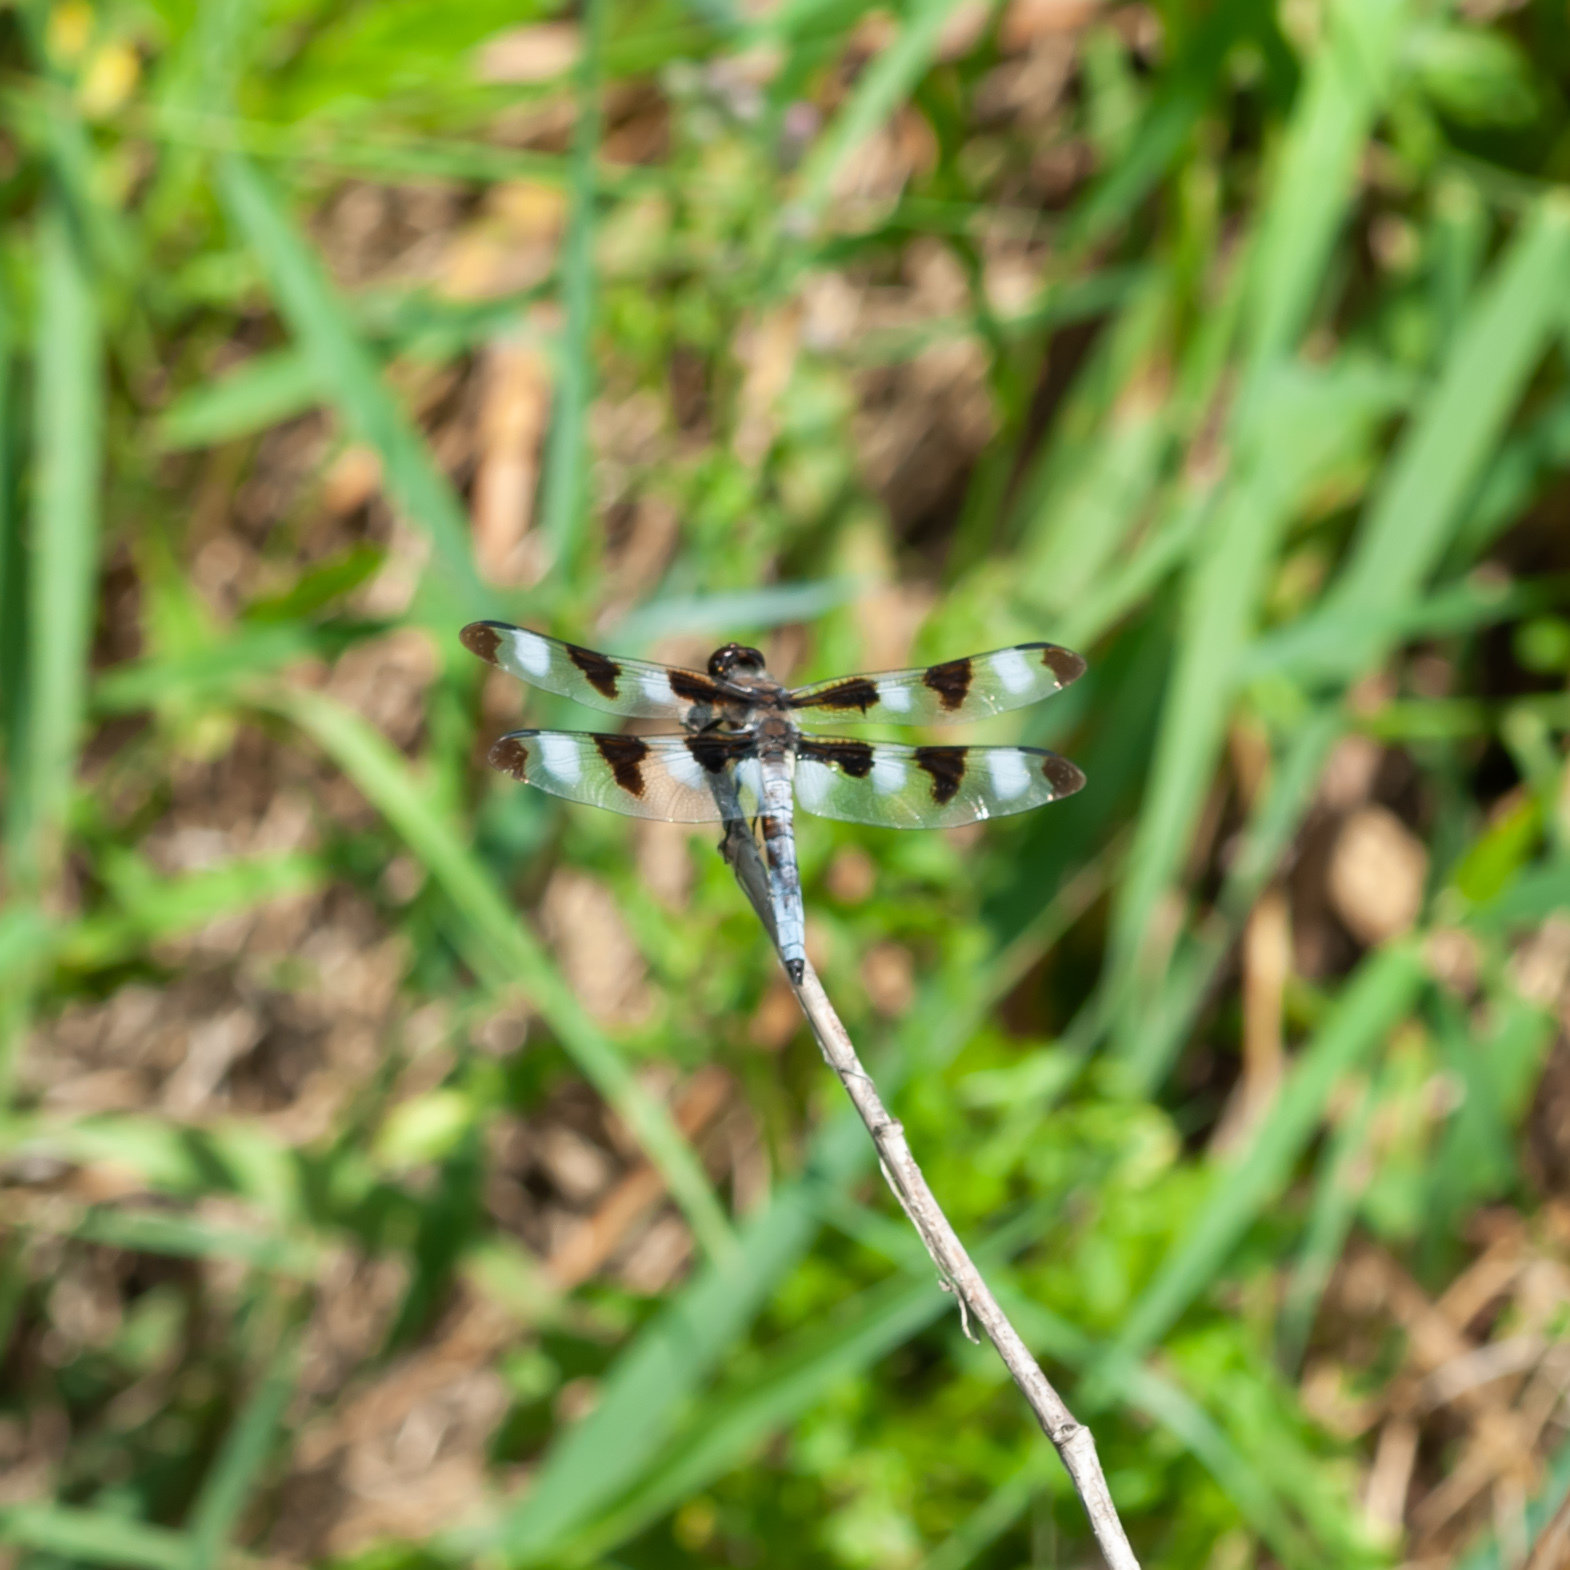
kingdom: Animalia
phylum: Arthropoda
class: Insecta
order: Odonata
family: Libellulidae
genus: Libellula
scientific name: Libellula pulchella
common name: Twelve-spotted skimmer
